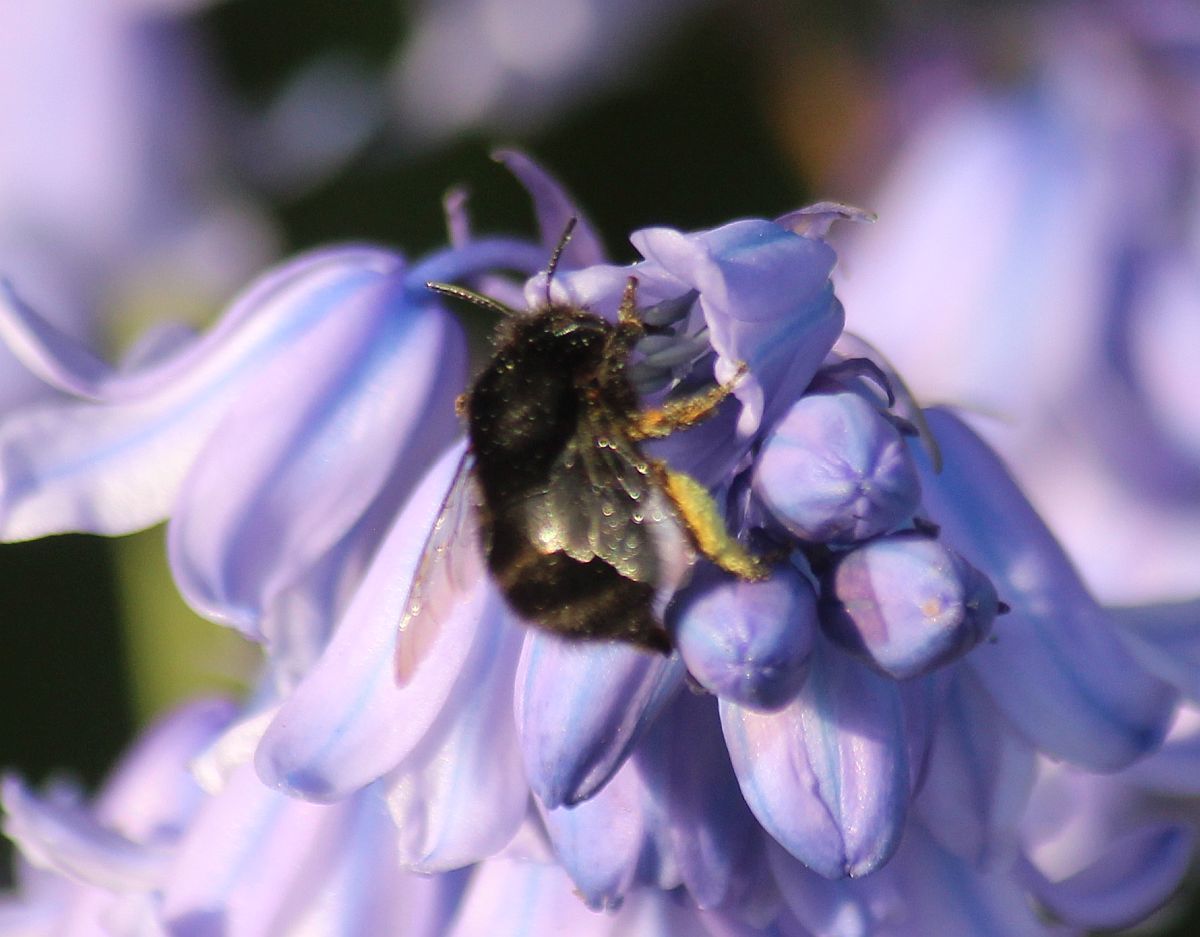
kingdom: Animalia
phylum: Arthropoda
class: Insecta
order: Hymenoptera
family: Apidae
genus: Anthophora
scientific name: Anthophora plumipes
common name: Hairy-footed flower bee
